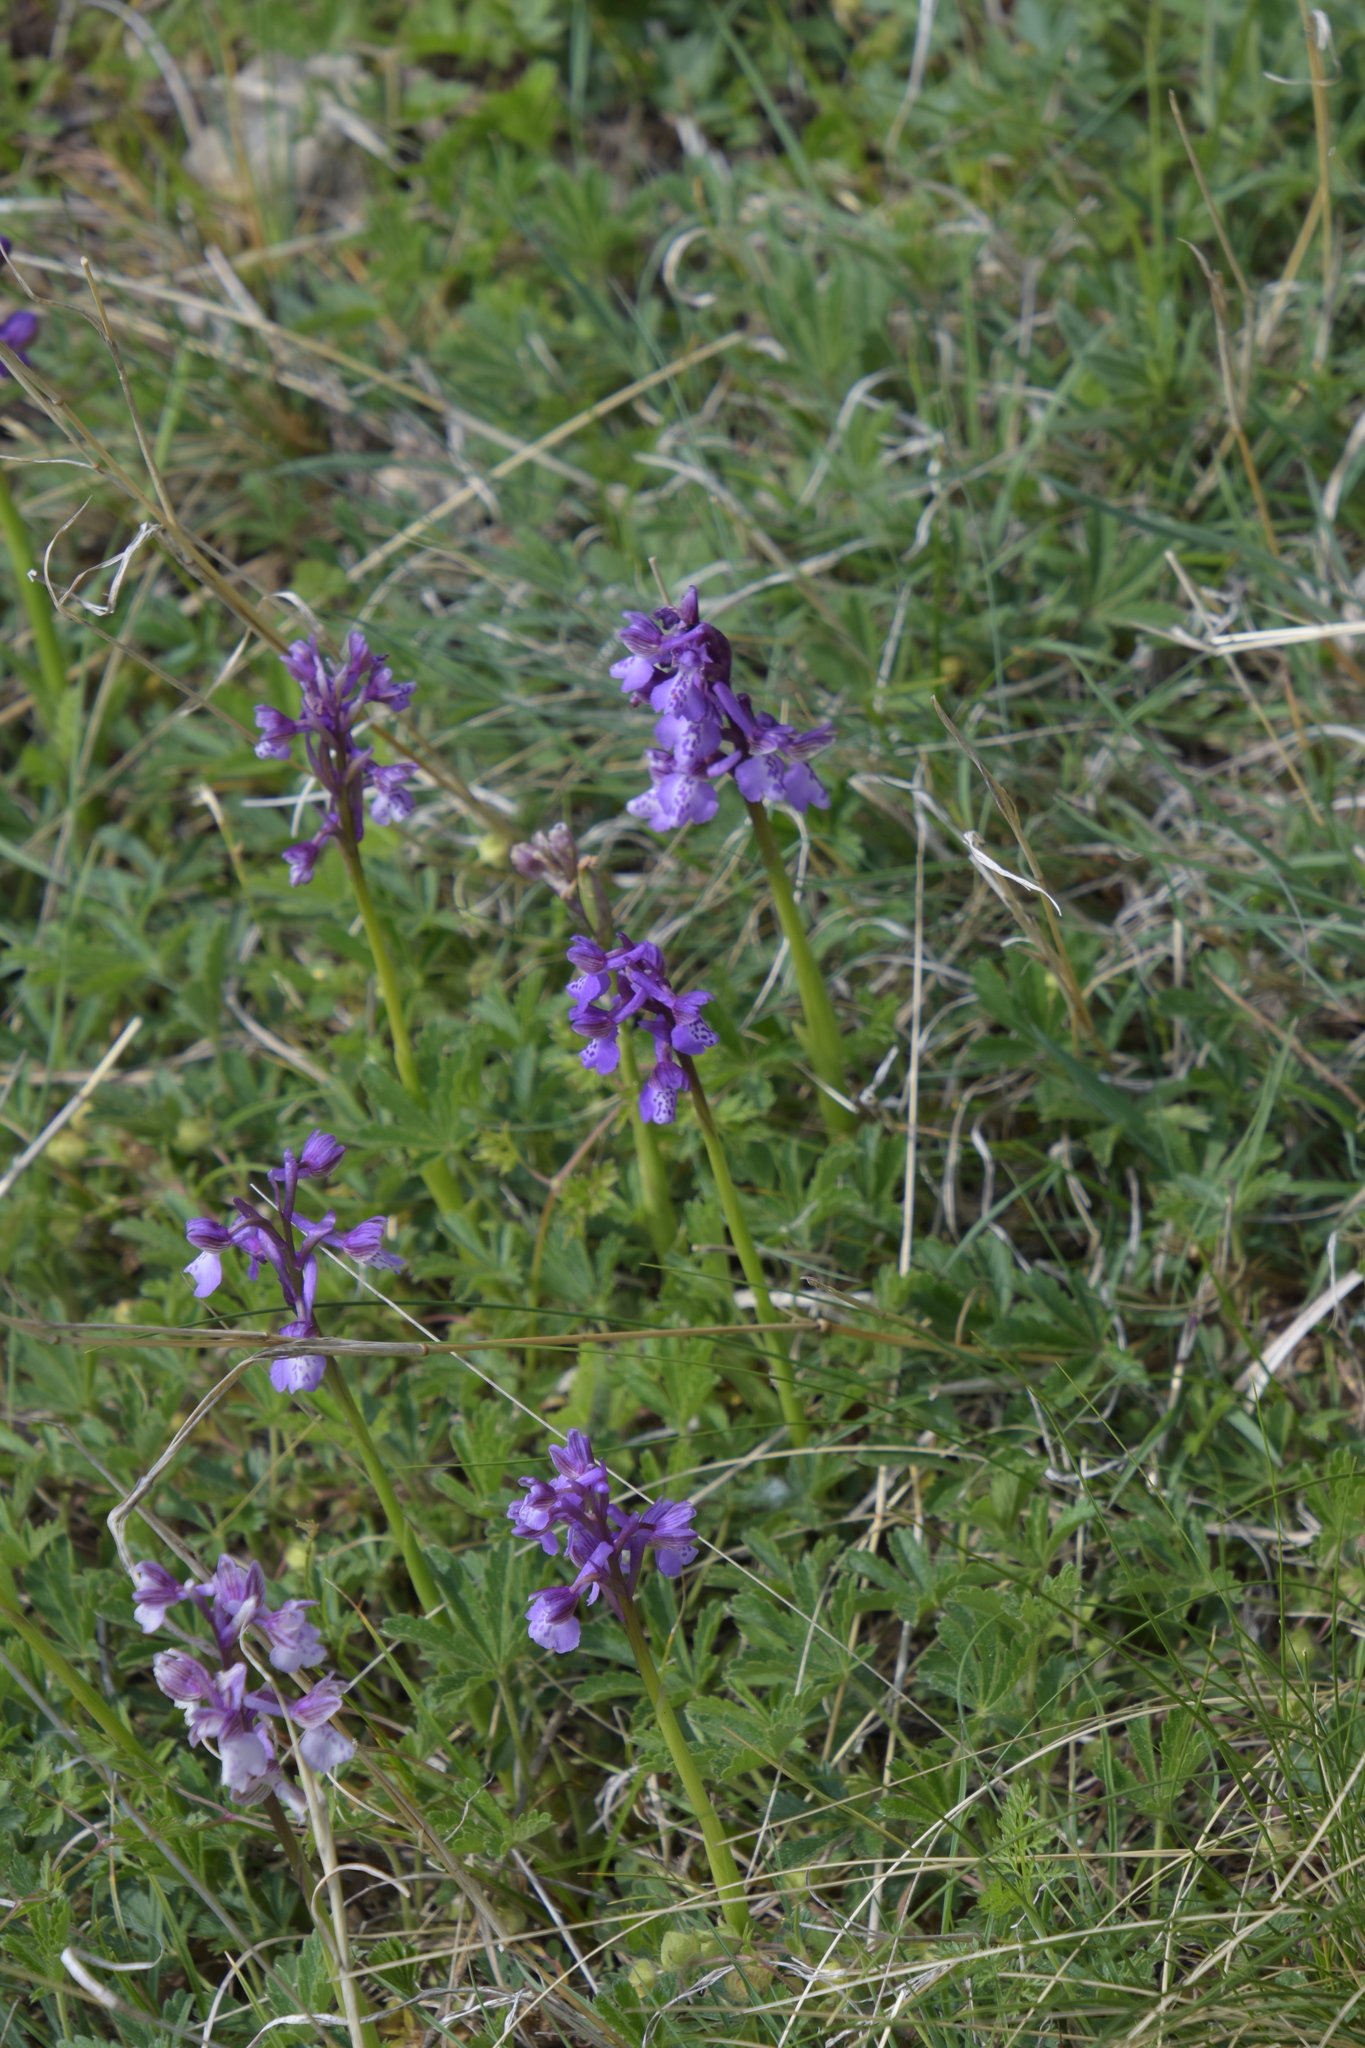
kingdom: Plantae
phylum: Tracheophyta
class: Liliopsida
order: Asparagales
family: Orchidaceae
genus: Anacamptis
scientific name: Anacamptis morio
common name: Green-winged orchid
